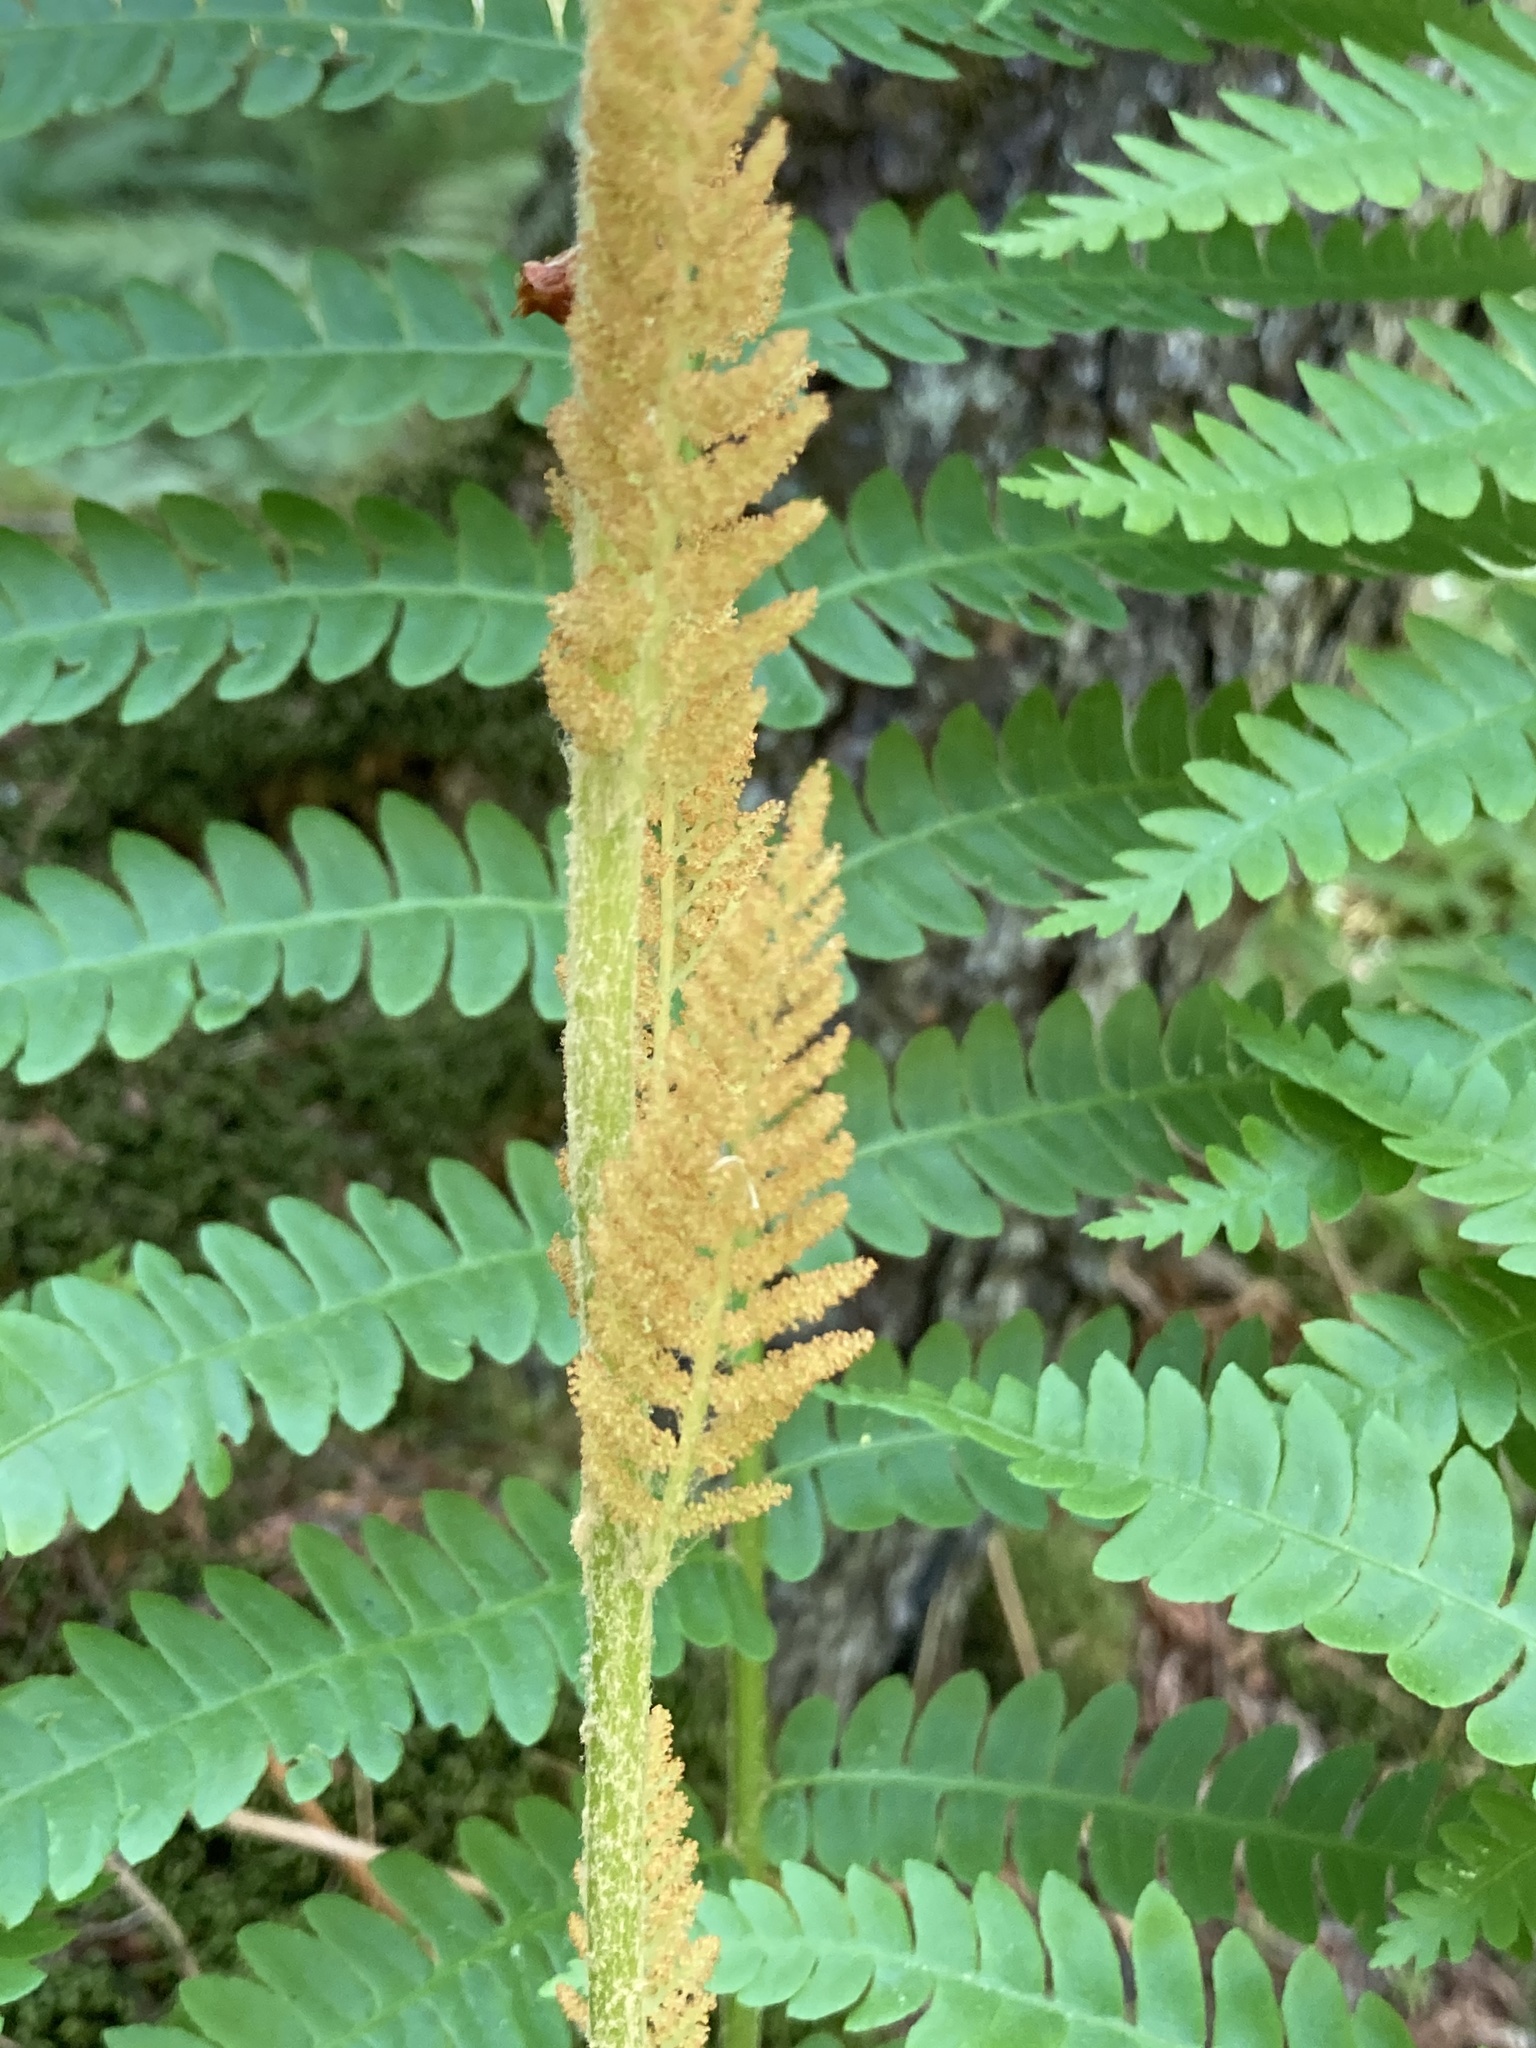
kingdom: Plantae
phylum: Tracheophyta
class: Polypodiopsida
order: Osmundales
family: Osmundaceae
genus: Osmundastrum
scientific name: Osmundastrum cinnamomeum
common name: Cinnamon fern
